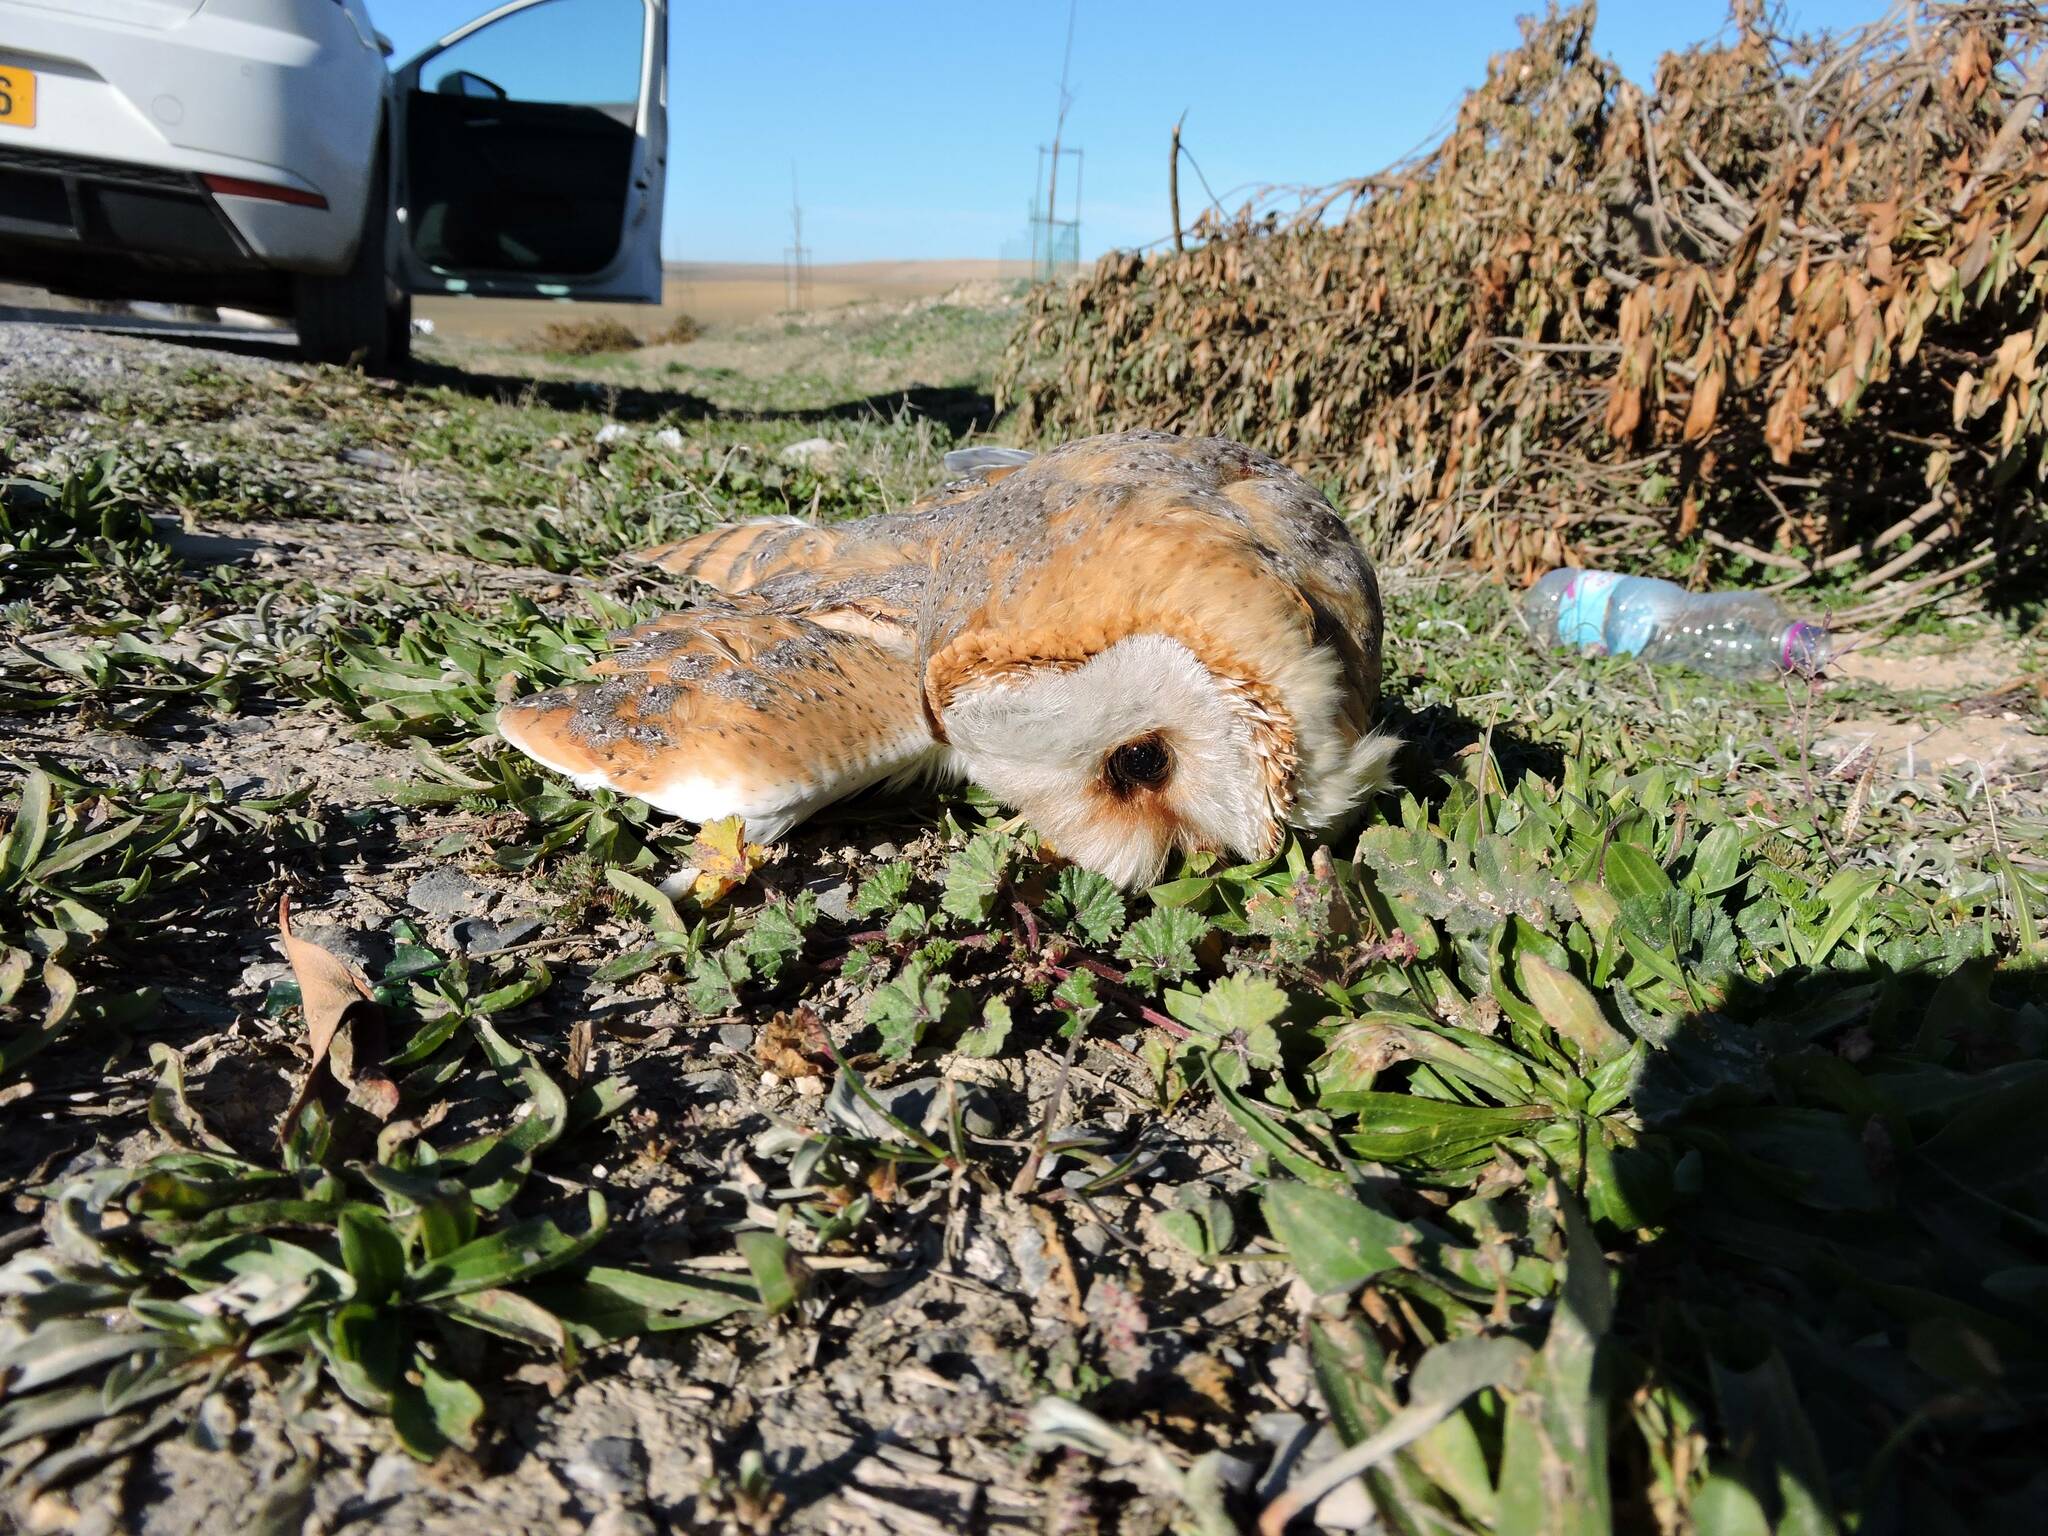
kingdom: Animalia
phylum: Chordata
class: Aves
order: Strigiformes
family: Tytonidae
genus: Tyto
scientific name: Tyto alba
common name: Barn owl
